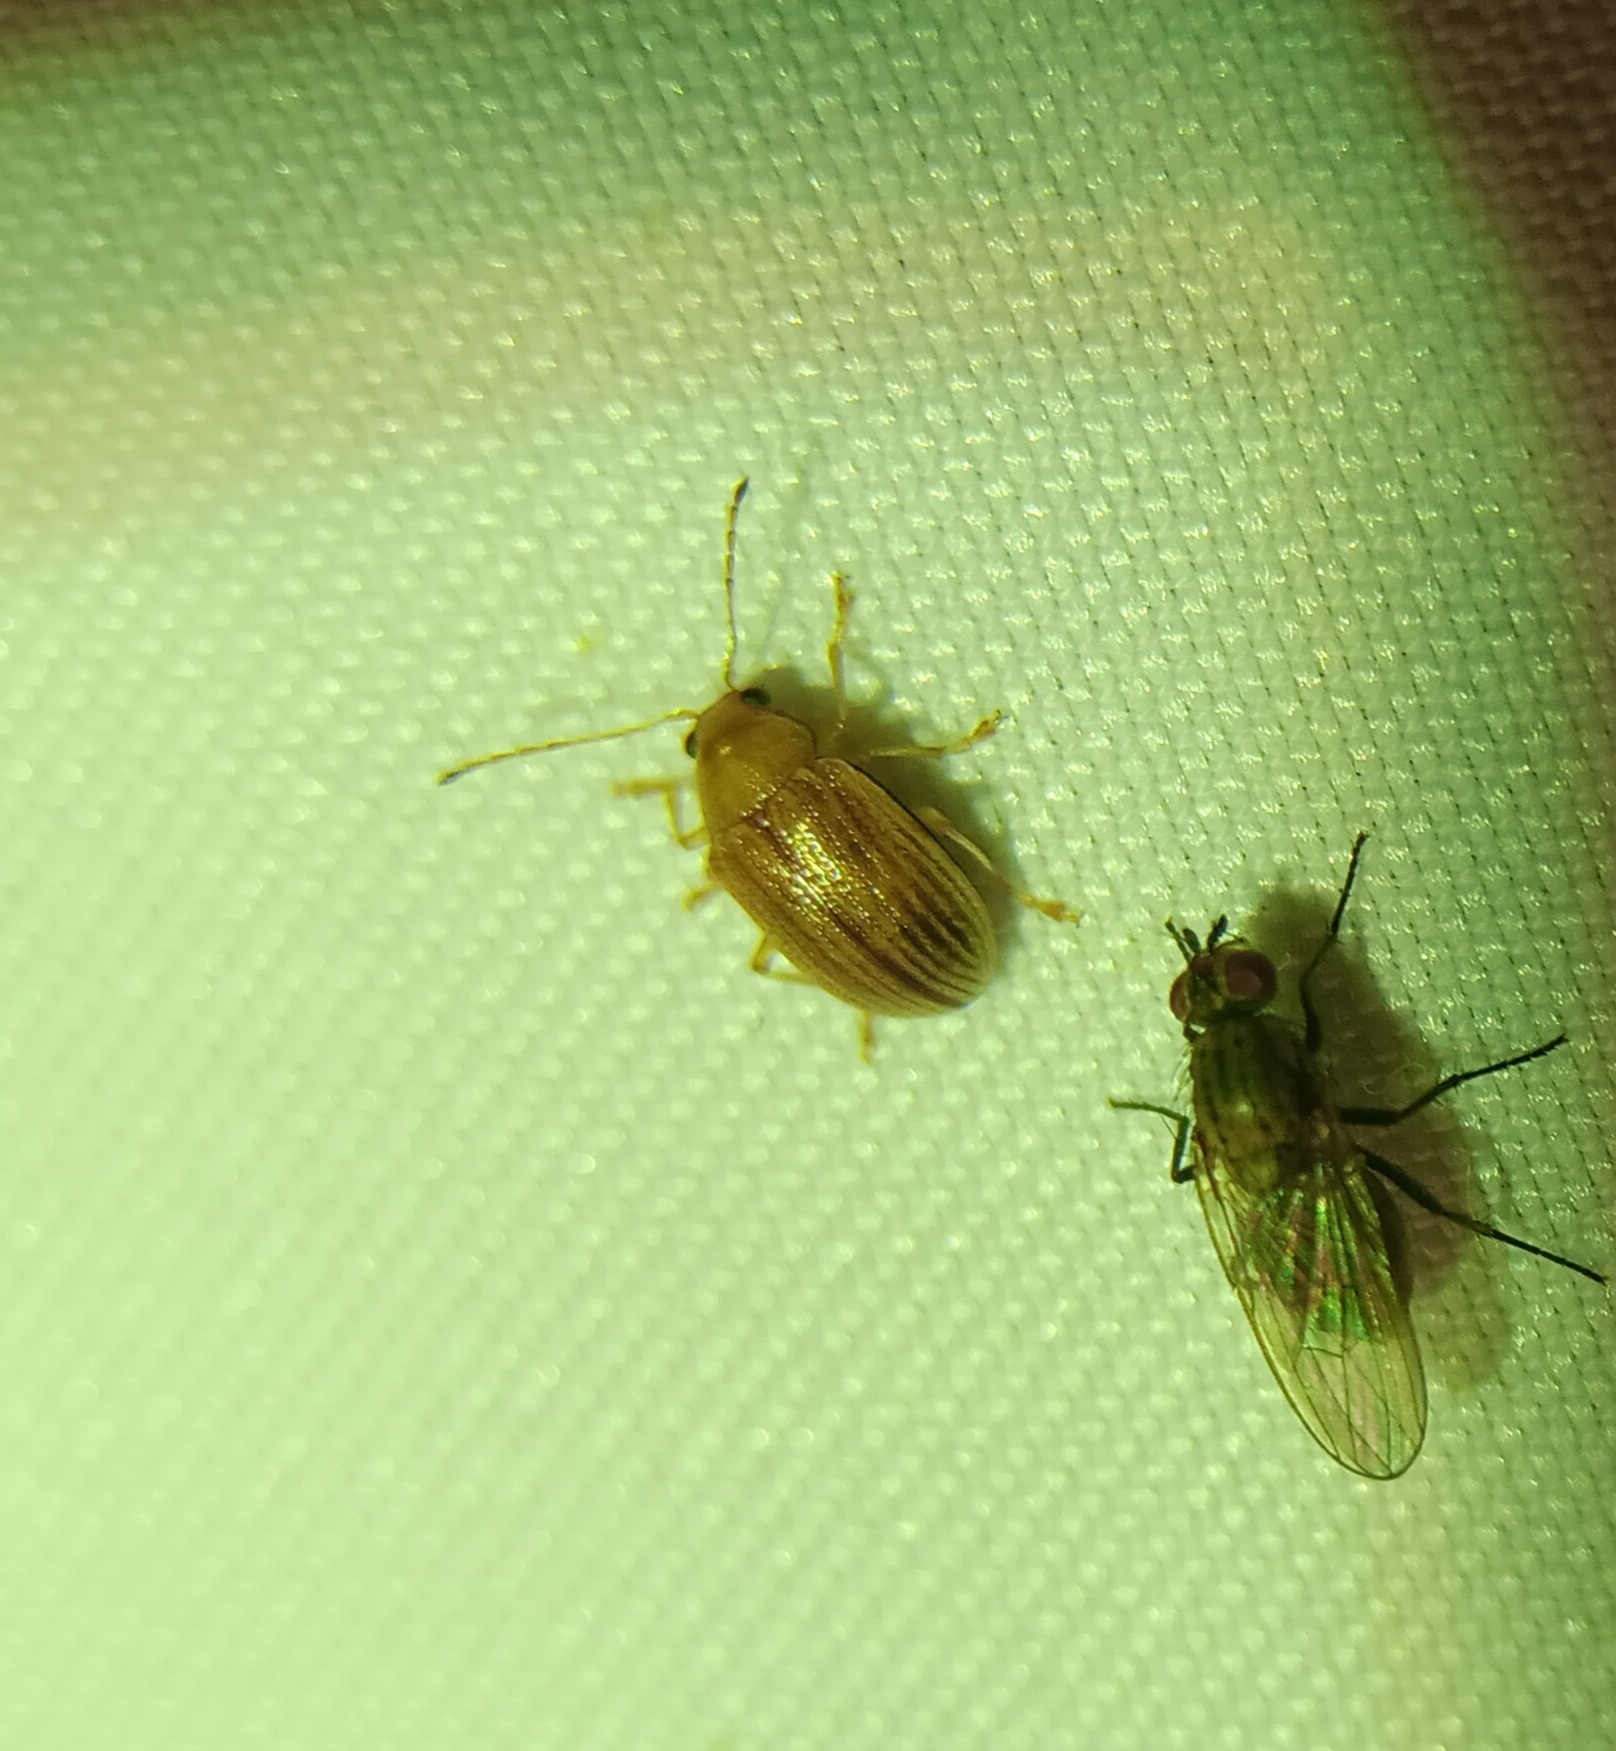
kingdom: Animalia
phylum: Arthropoda
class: Insecta
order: Coleoptera
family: Chrysomelidae
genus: Colaspis
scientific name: Colaspis brunnea
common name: Grape colaspis
